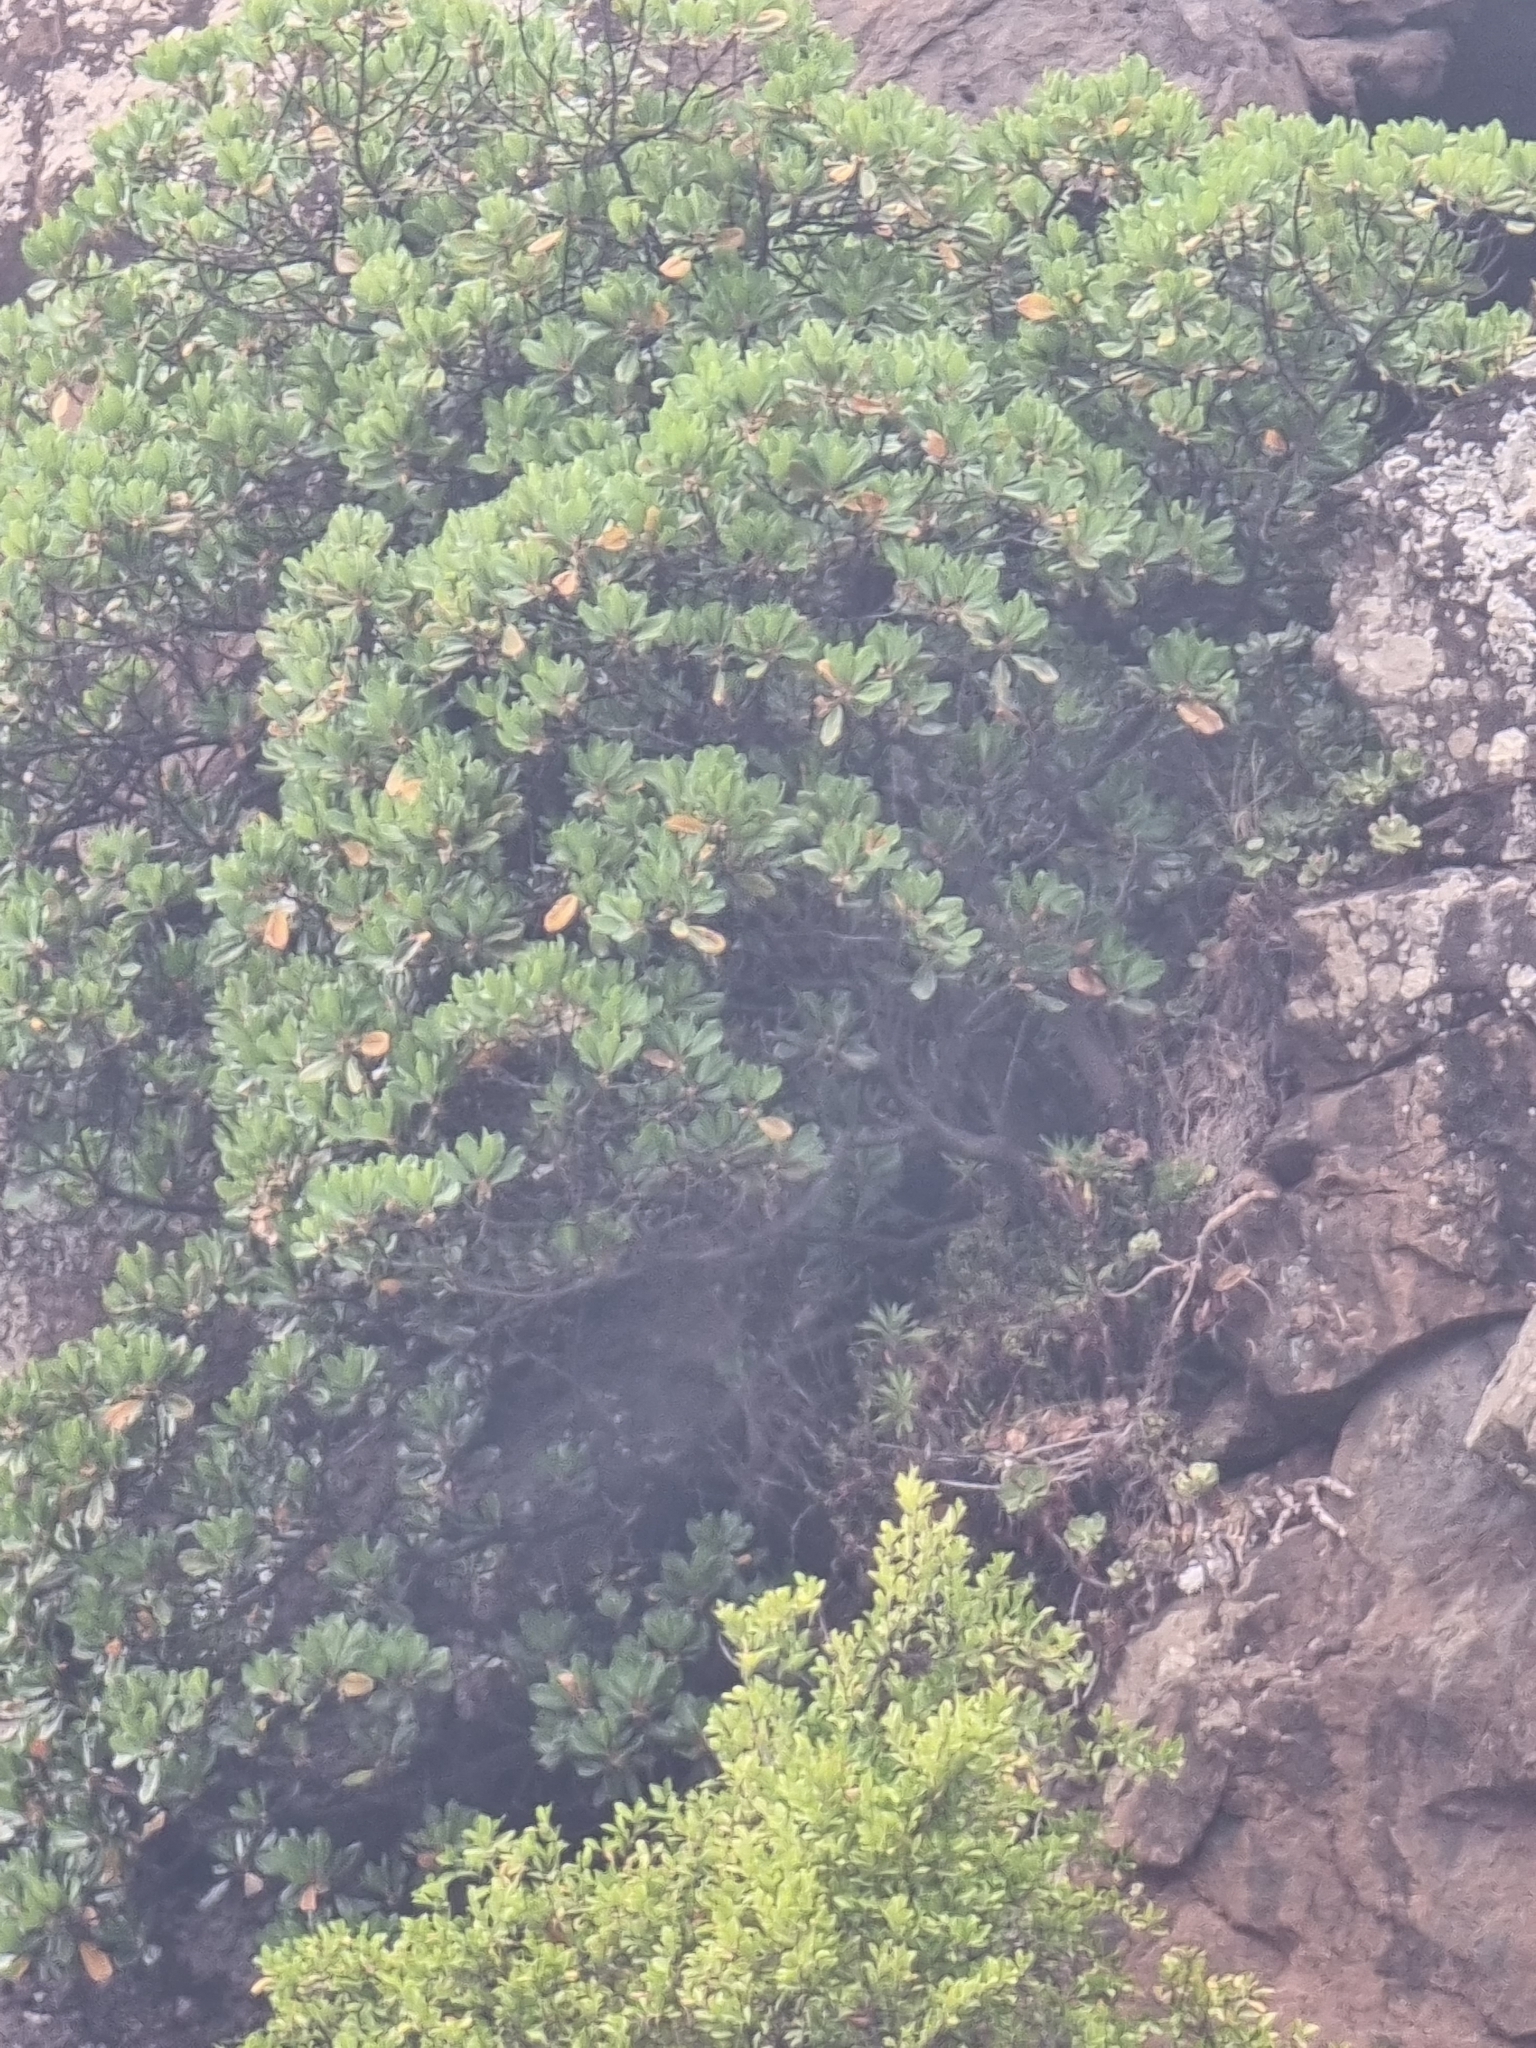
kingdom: Plantae
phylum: Tracheophyta
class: Magnoliopsida
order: Ericales
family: Sapotaceae
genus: Sideroxylon
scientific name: Sideroxylon mirmulans
